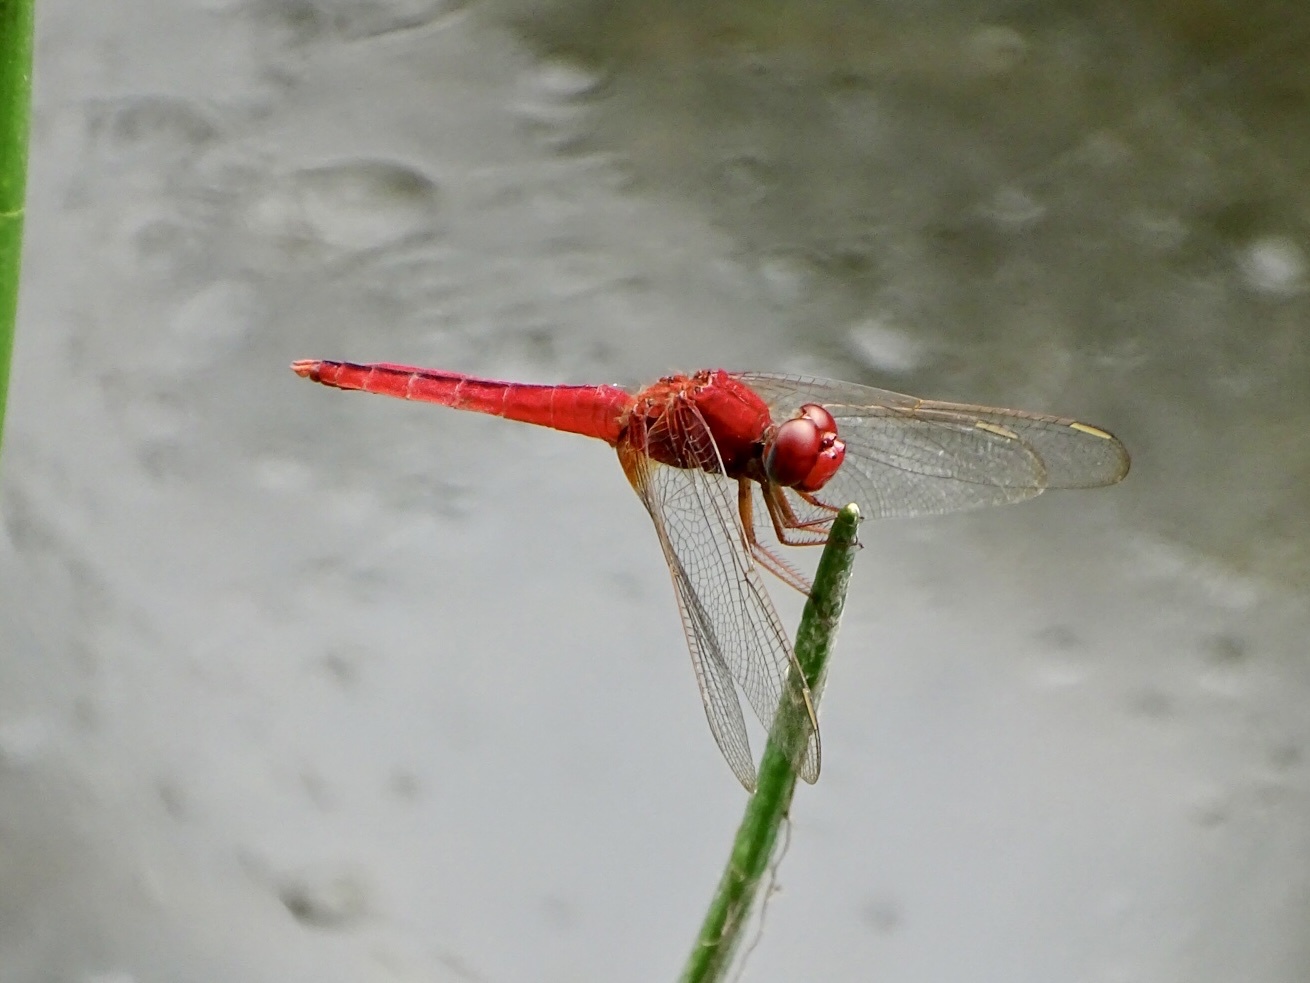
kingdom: Animalia
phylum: Arthropoda
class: Insecta
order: Odonata
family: Libellulidae
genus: Crocothemis
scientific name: Crocothemis servilia
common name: Scarlet skimmer
